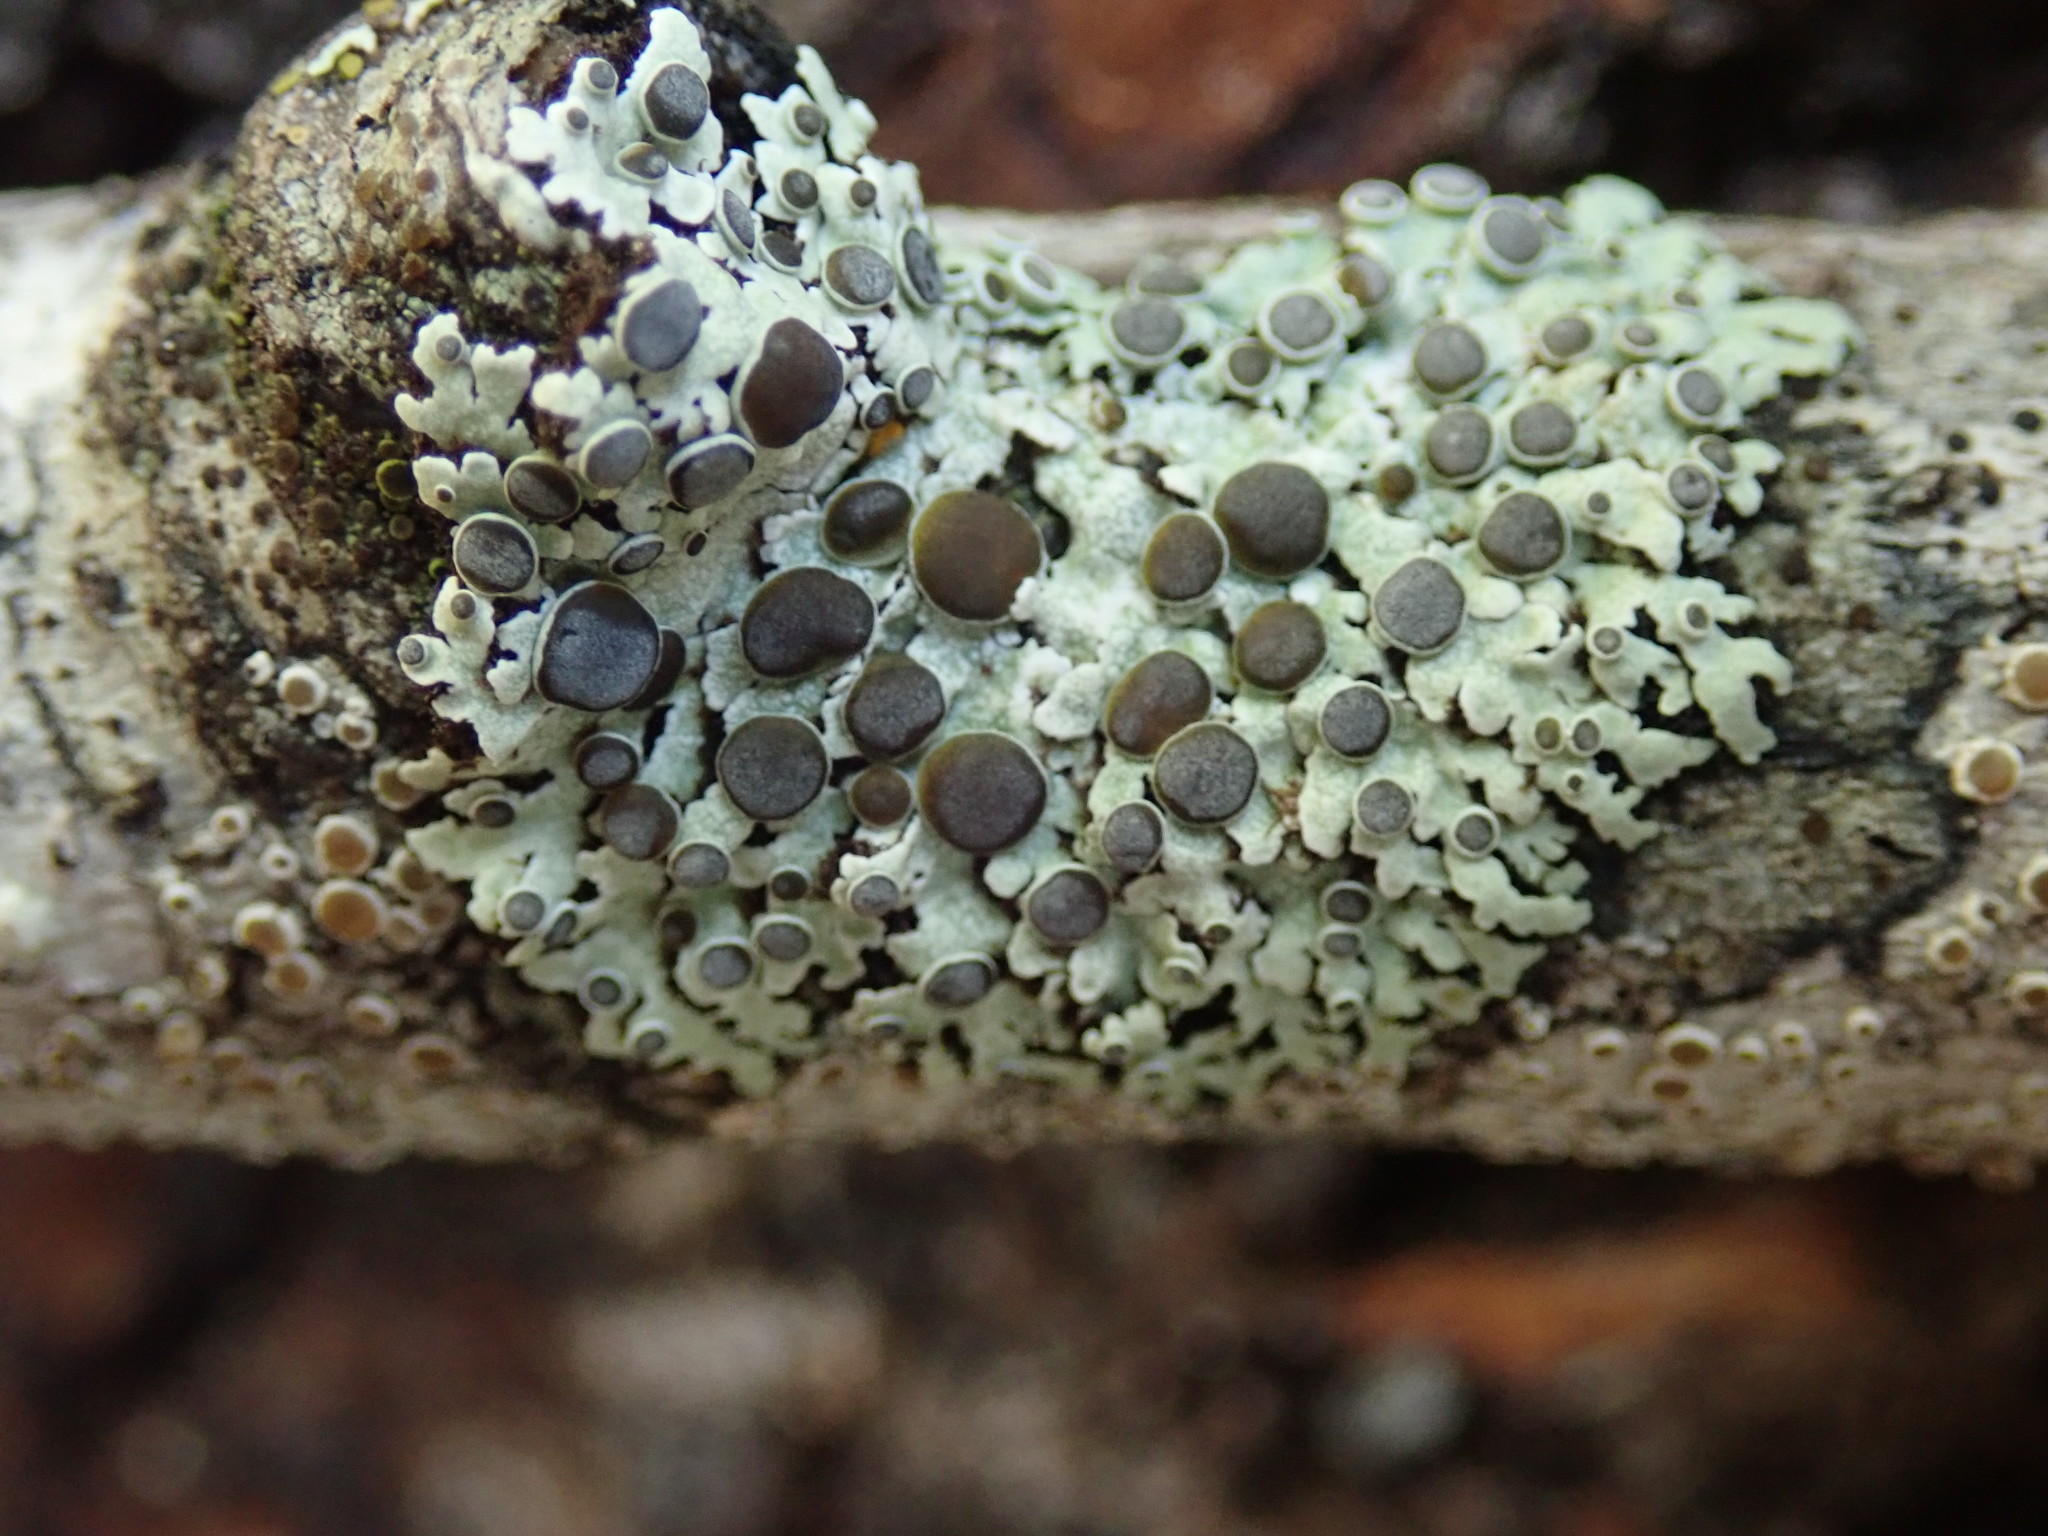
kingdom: Fungi
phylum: Ascomycota
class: Lecanoromycetes
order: Caliciales
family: Physciaceae
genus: Physcia
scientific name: Physcia aipolia
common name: Hoary rosette lichen
